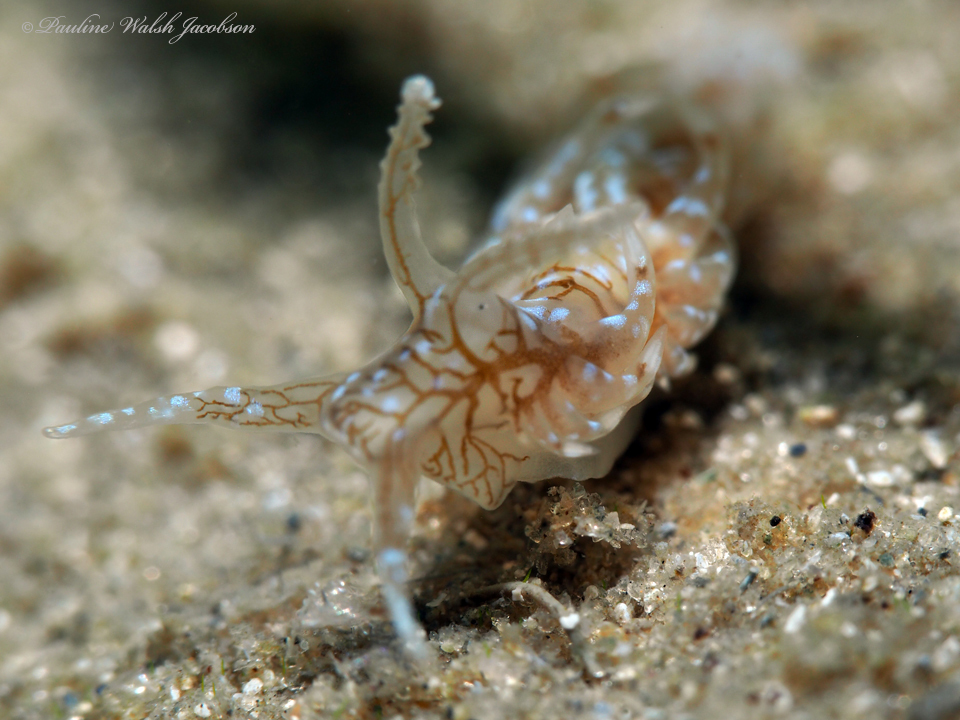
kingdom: Animalia
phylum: Mollusca
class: Gastropoda
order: Nudibranchia
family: Aeolidiidae
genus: Spurilla
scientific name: Spurilla dupontae
